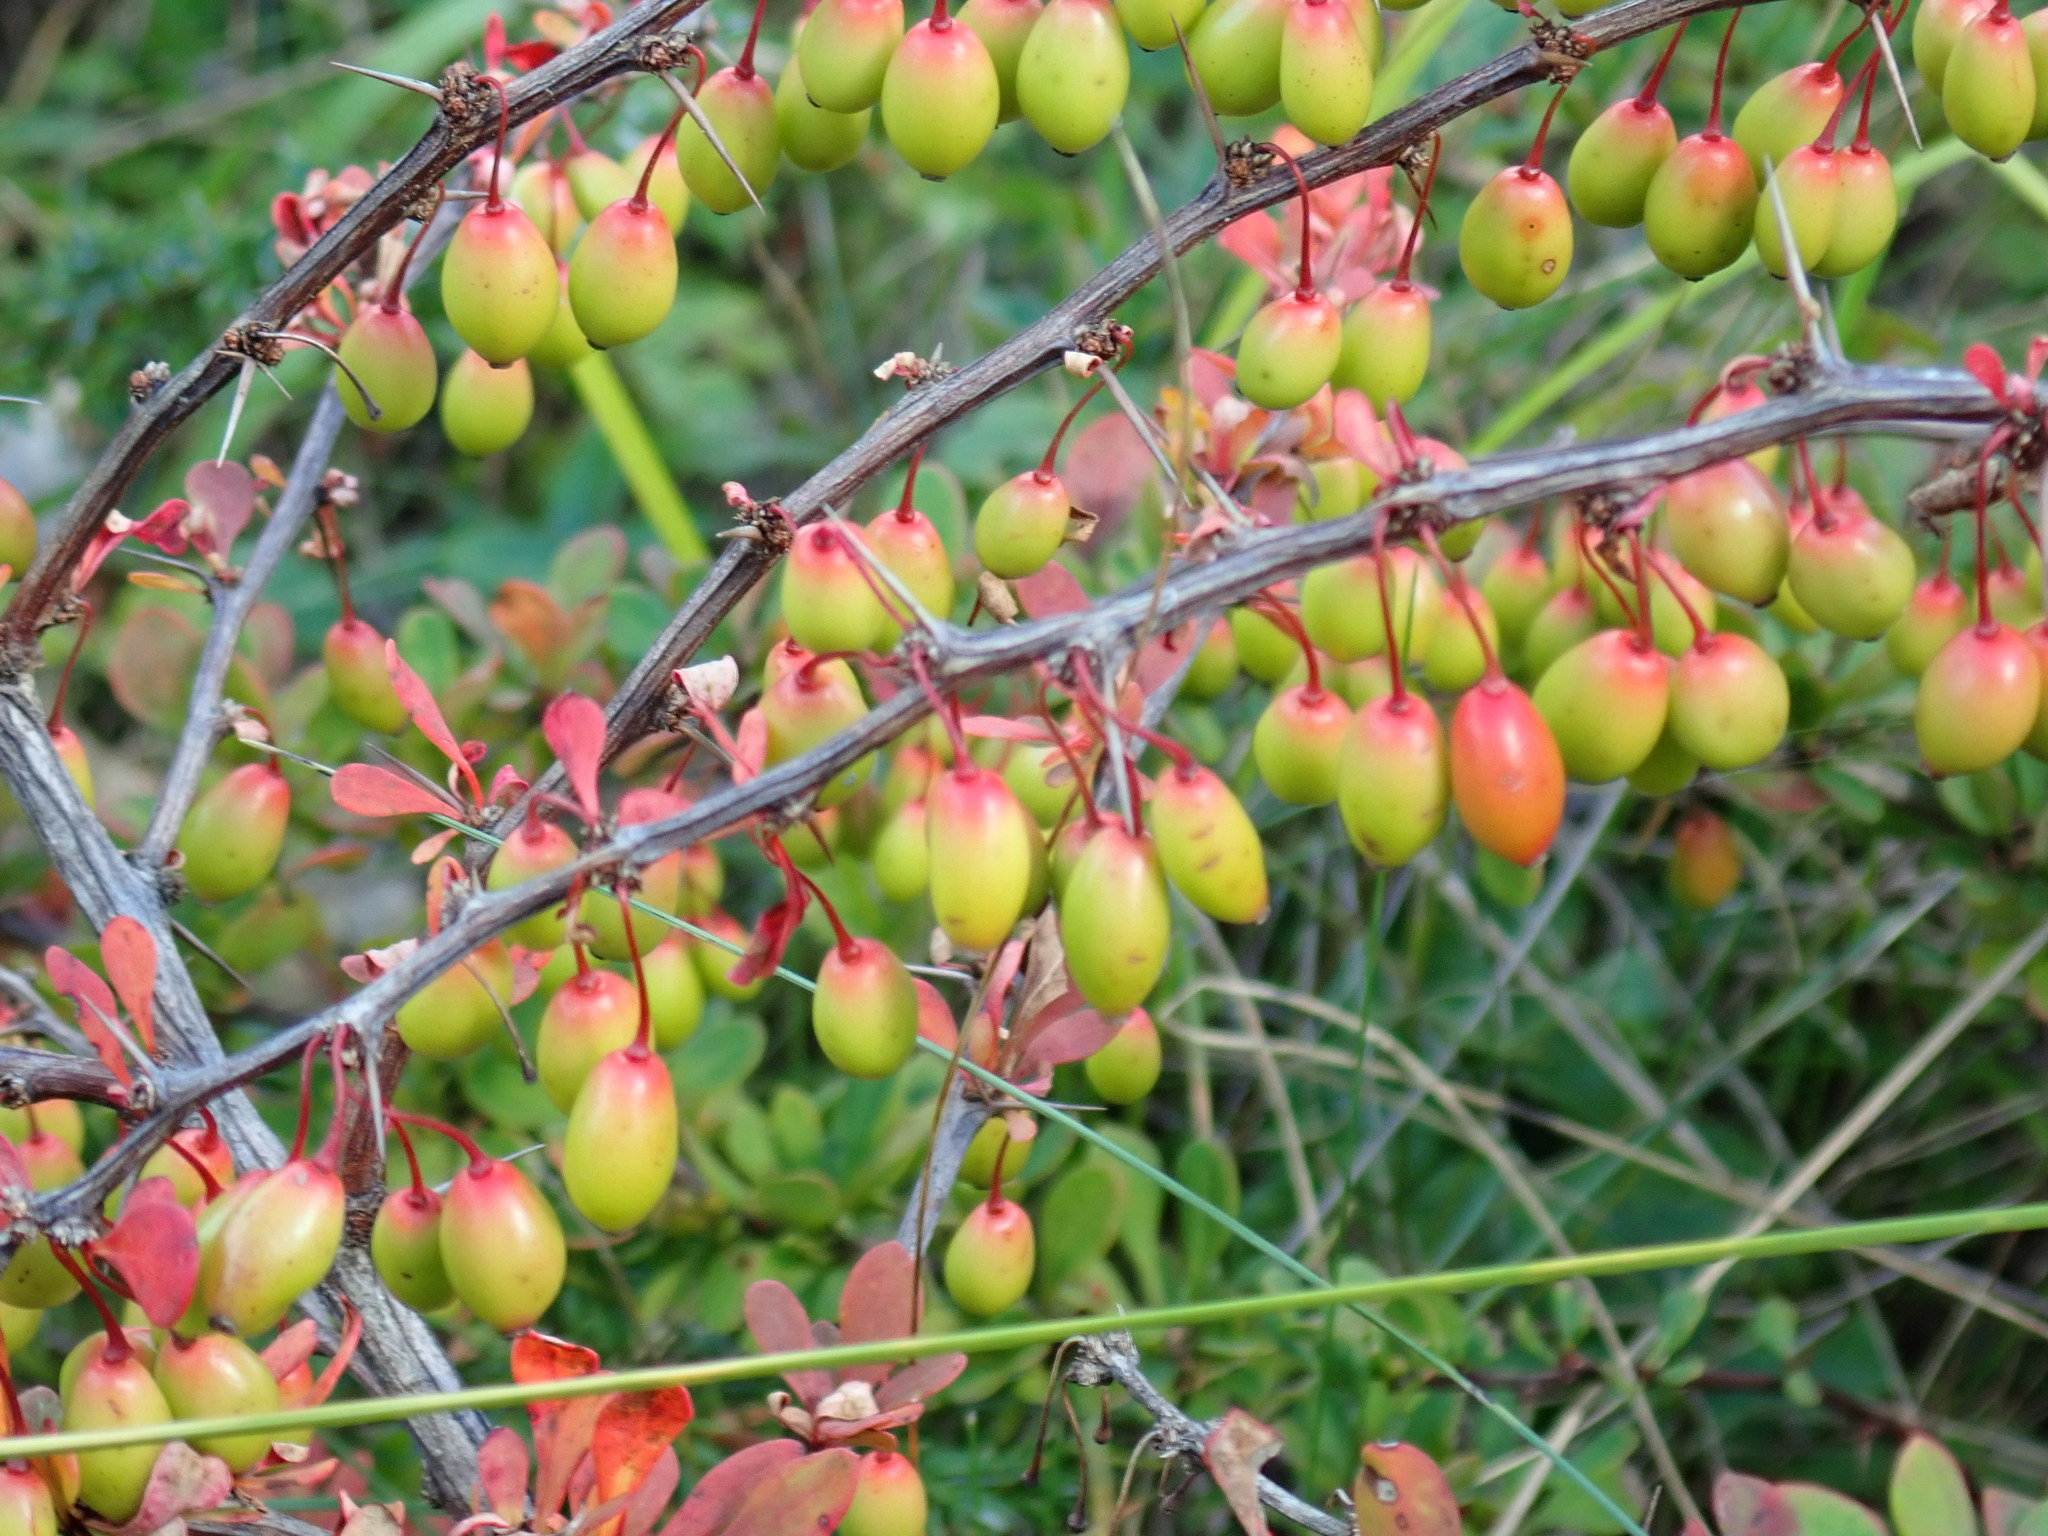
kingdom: Plantae
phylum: Tracheophyta
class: Magnoliopsida
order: Ranunculales
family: Berberidaceae
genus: Berberis
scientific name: Berberis thunbergii
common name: Japanese barberry
